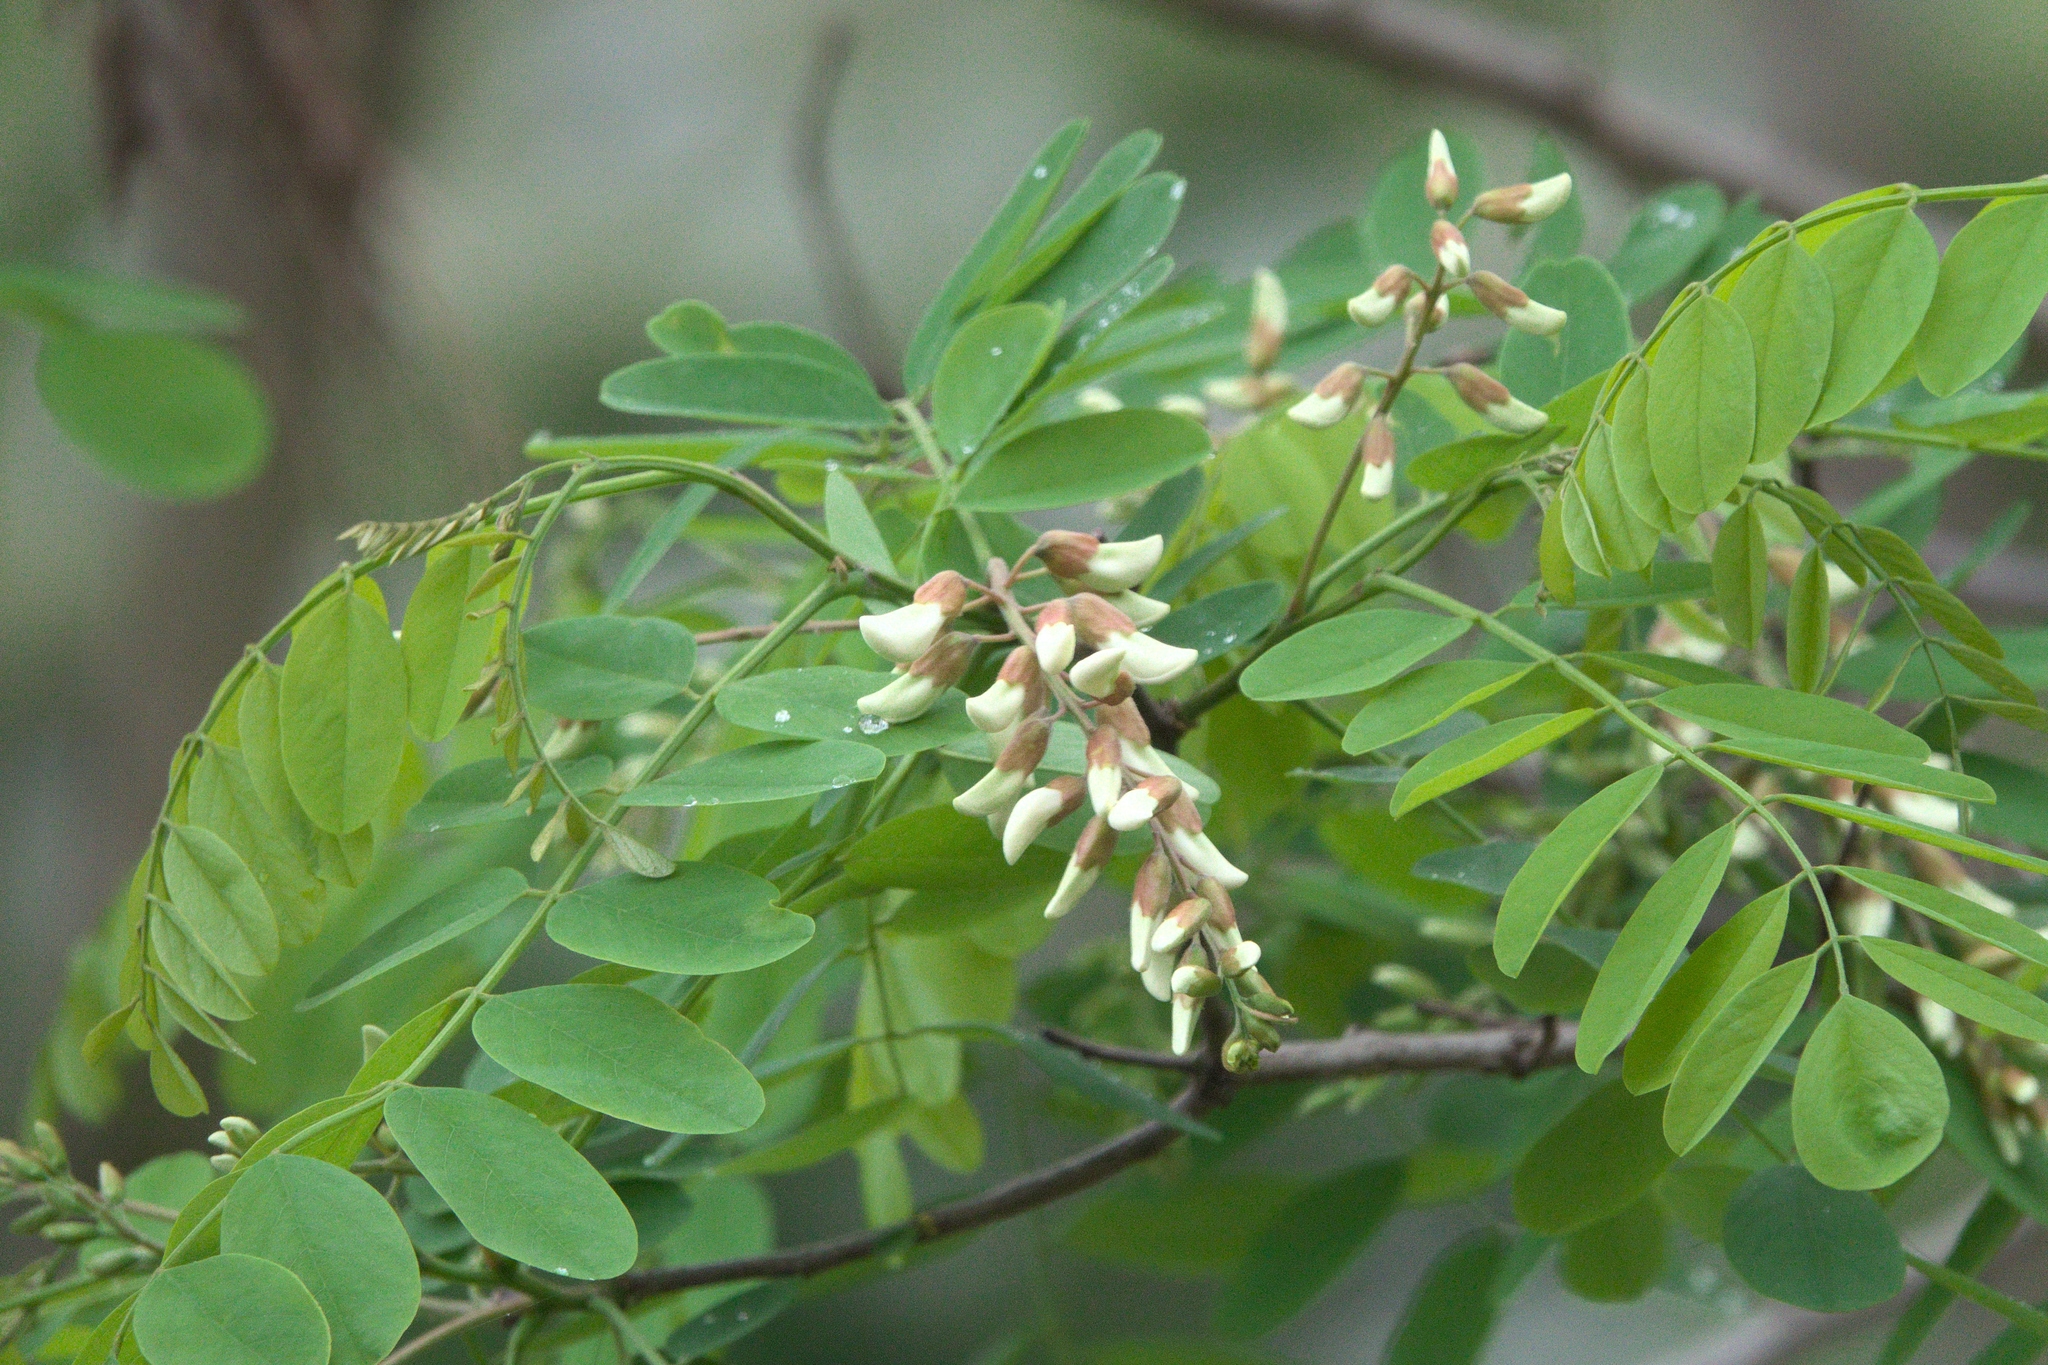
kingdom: Plantae
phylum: Tracheophyta
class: Magnoliopsida
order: Fabales
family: Fabaceae
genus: Robinia
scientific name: Robinia pseudoacacia
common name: Black locust
